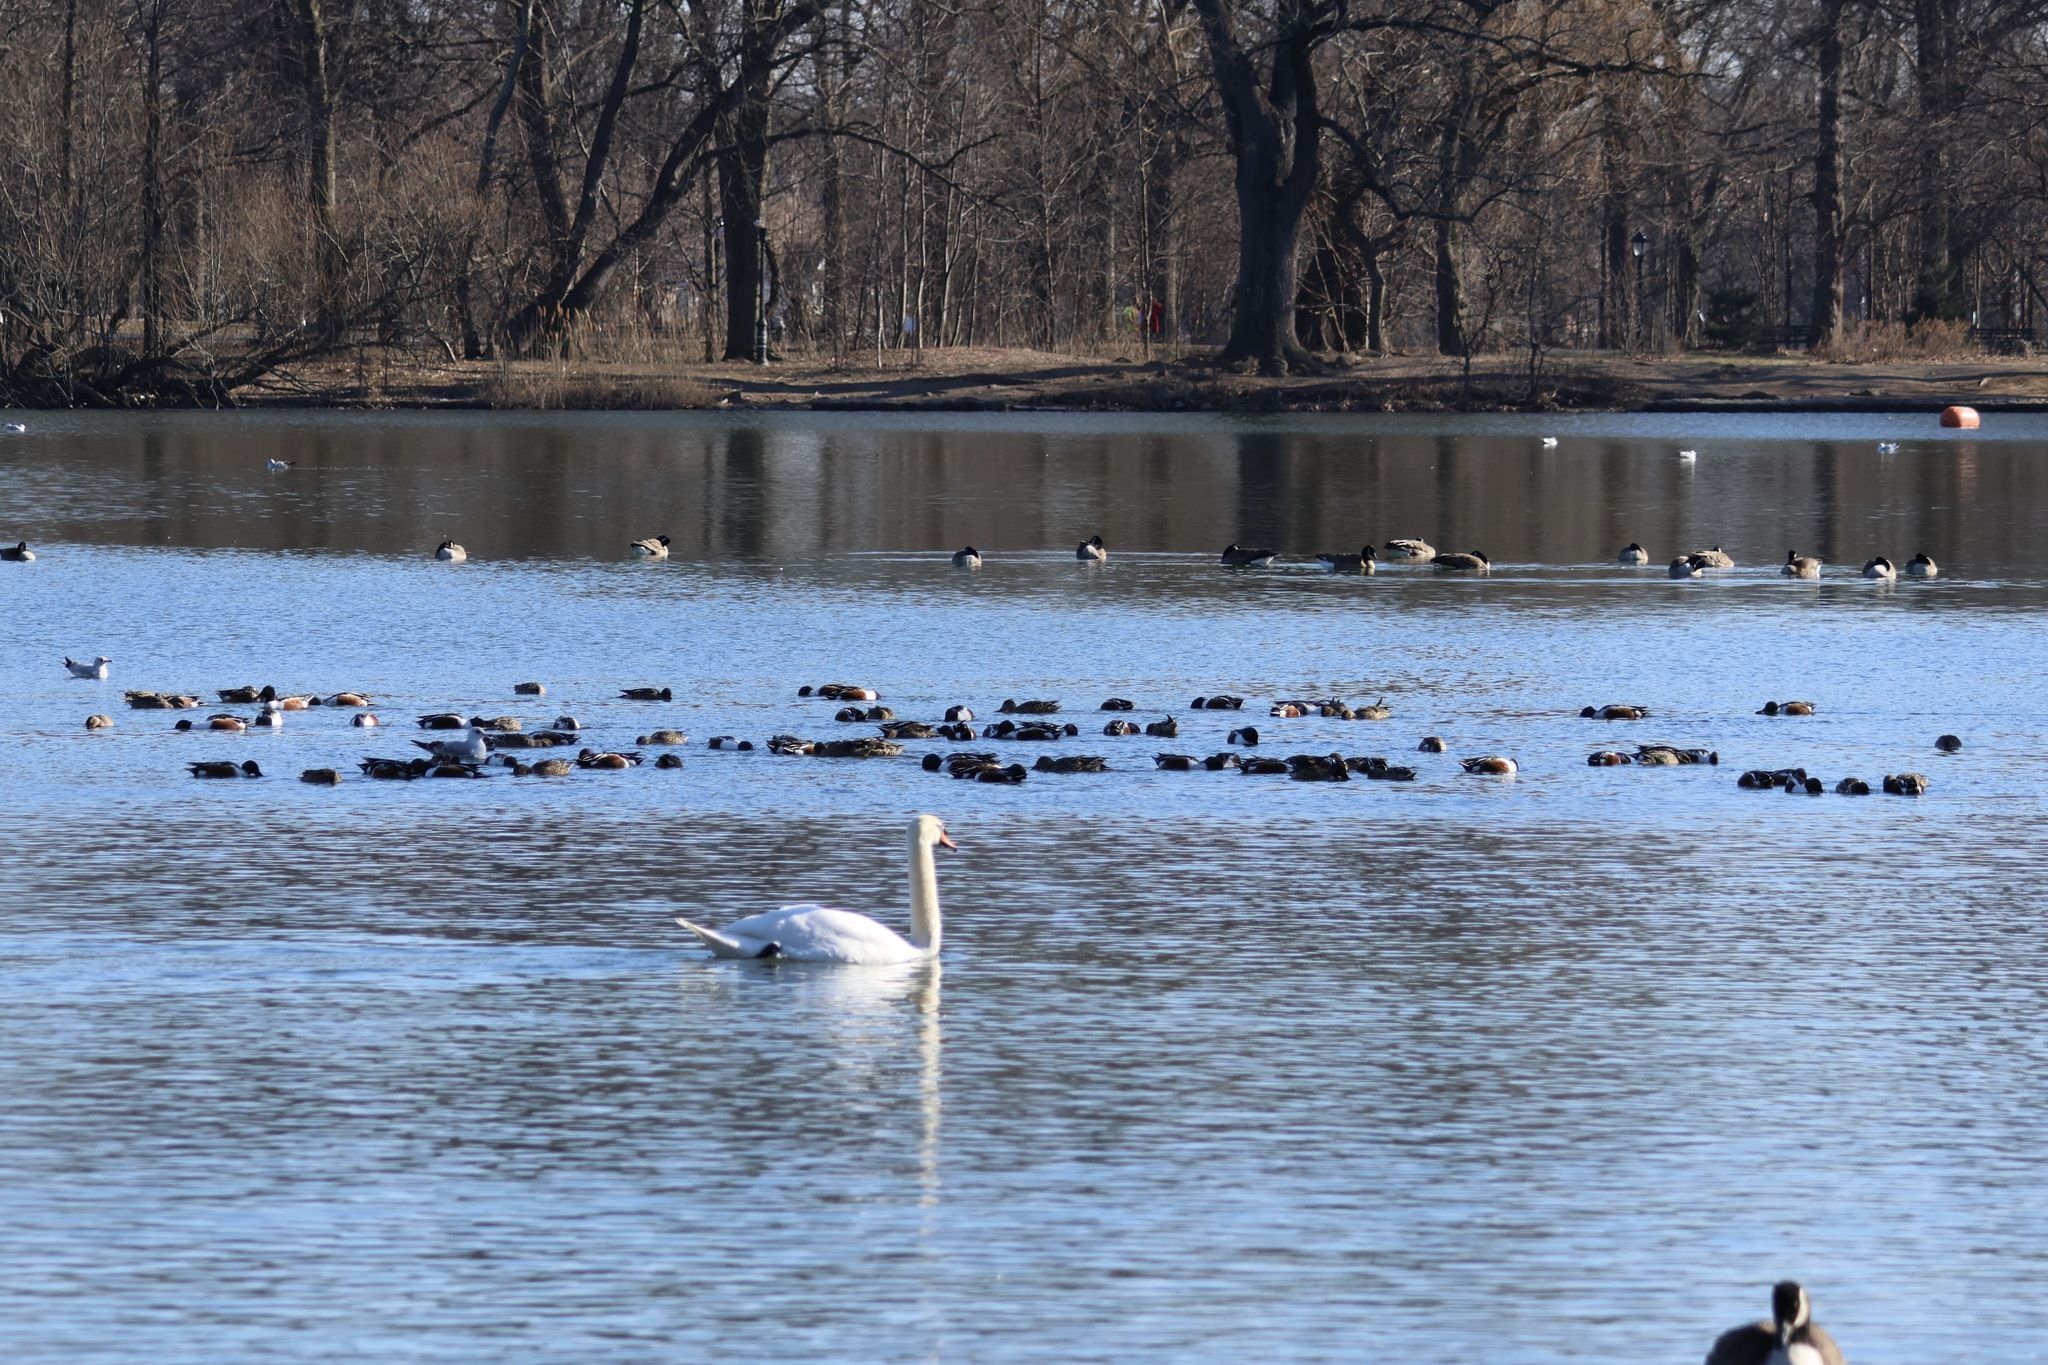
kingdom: Animalia
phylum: Chordata
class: Aves
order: Anseriformes
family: Anatidae
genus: Spatula
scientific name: Spatula clypeata
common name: Northern shoveler
